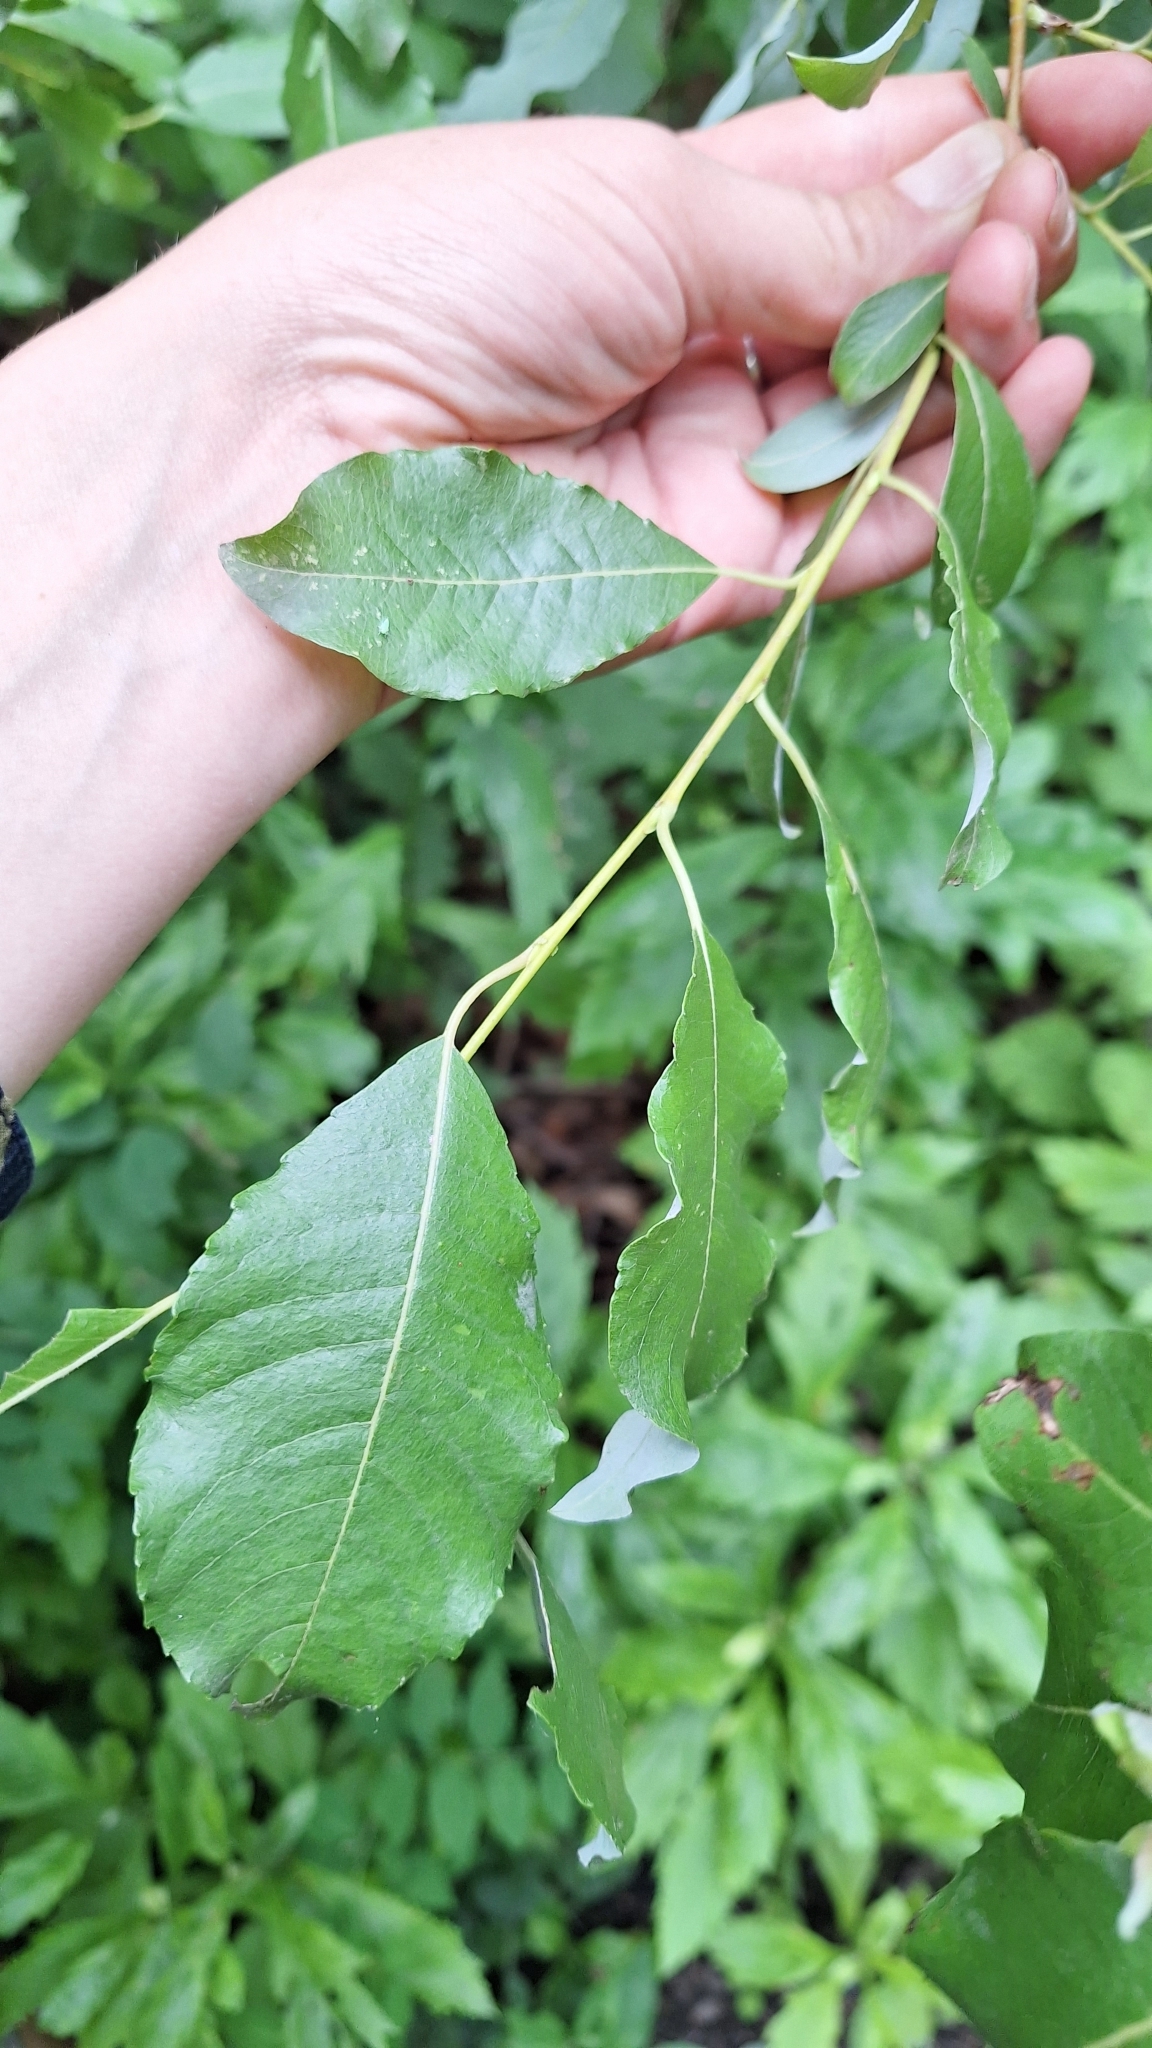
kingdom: Plantae
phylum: Tracheophyta
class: Magnoliopsida
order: Malpighiales
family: Salicaceae
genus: Salix
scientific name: Salix taraikensis
